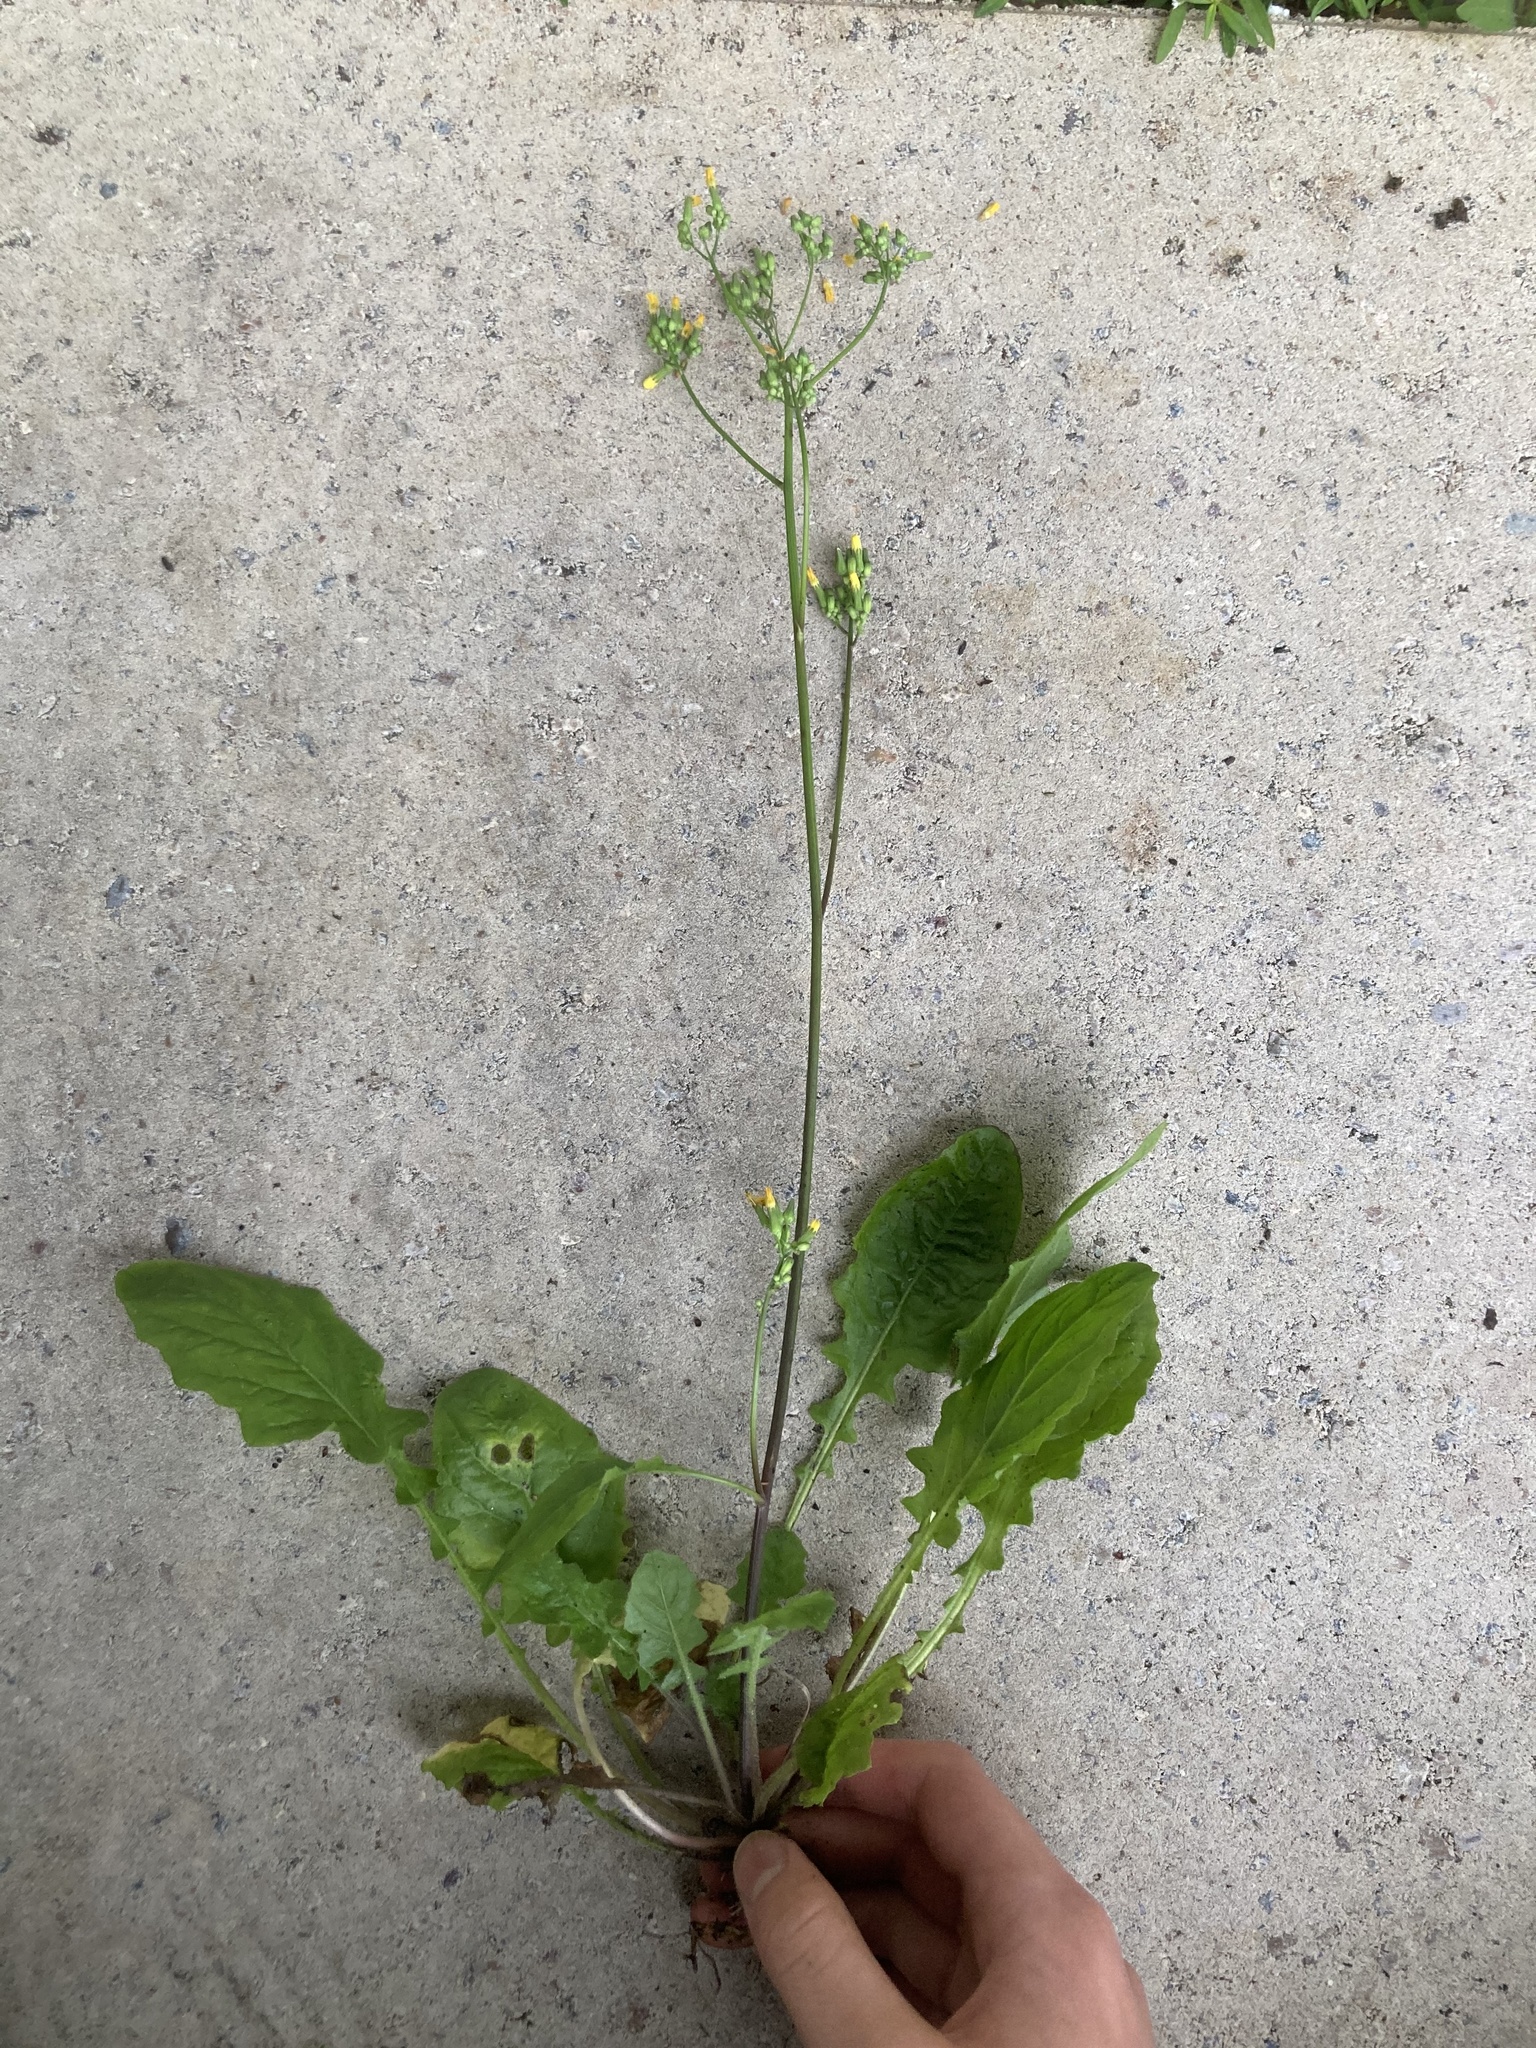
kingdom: Plantae
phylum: Tracheophyta
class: Magnoliopsida
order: Asterales
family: Asteraceae
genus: Youngia
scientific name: Youngia japonica
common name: Oriental false hawksbeard
